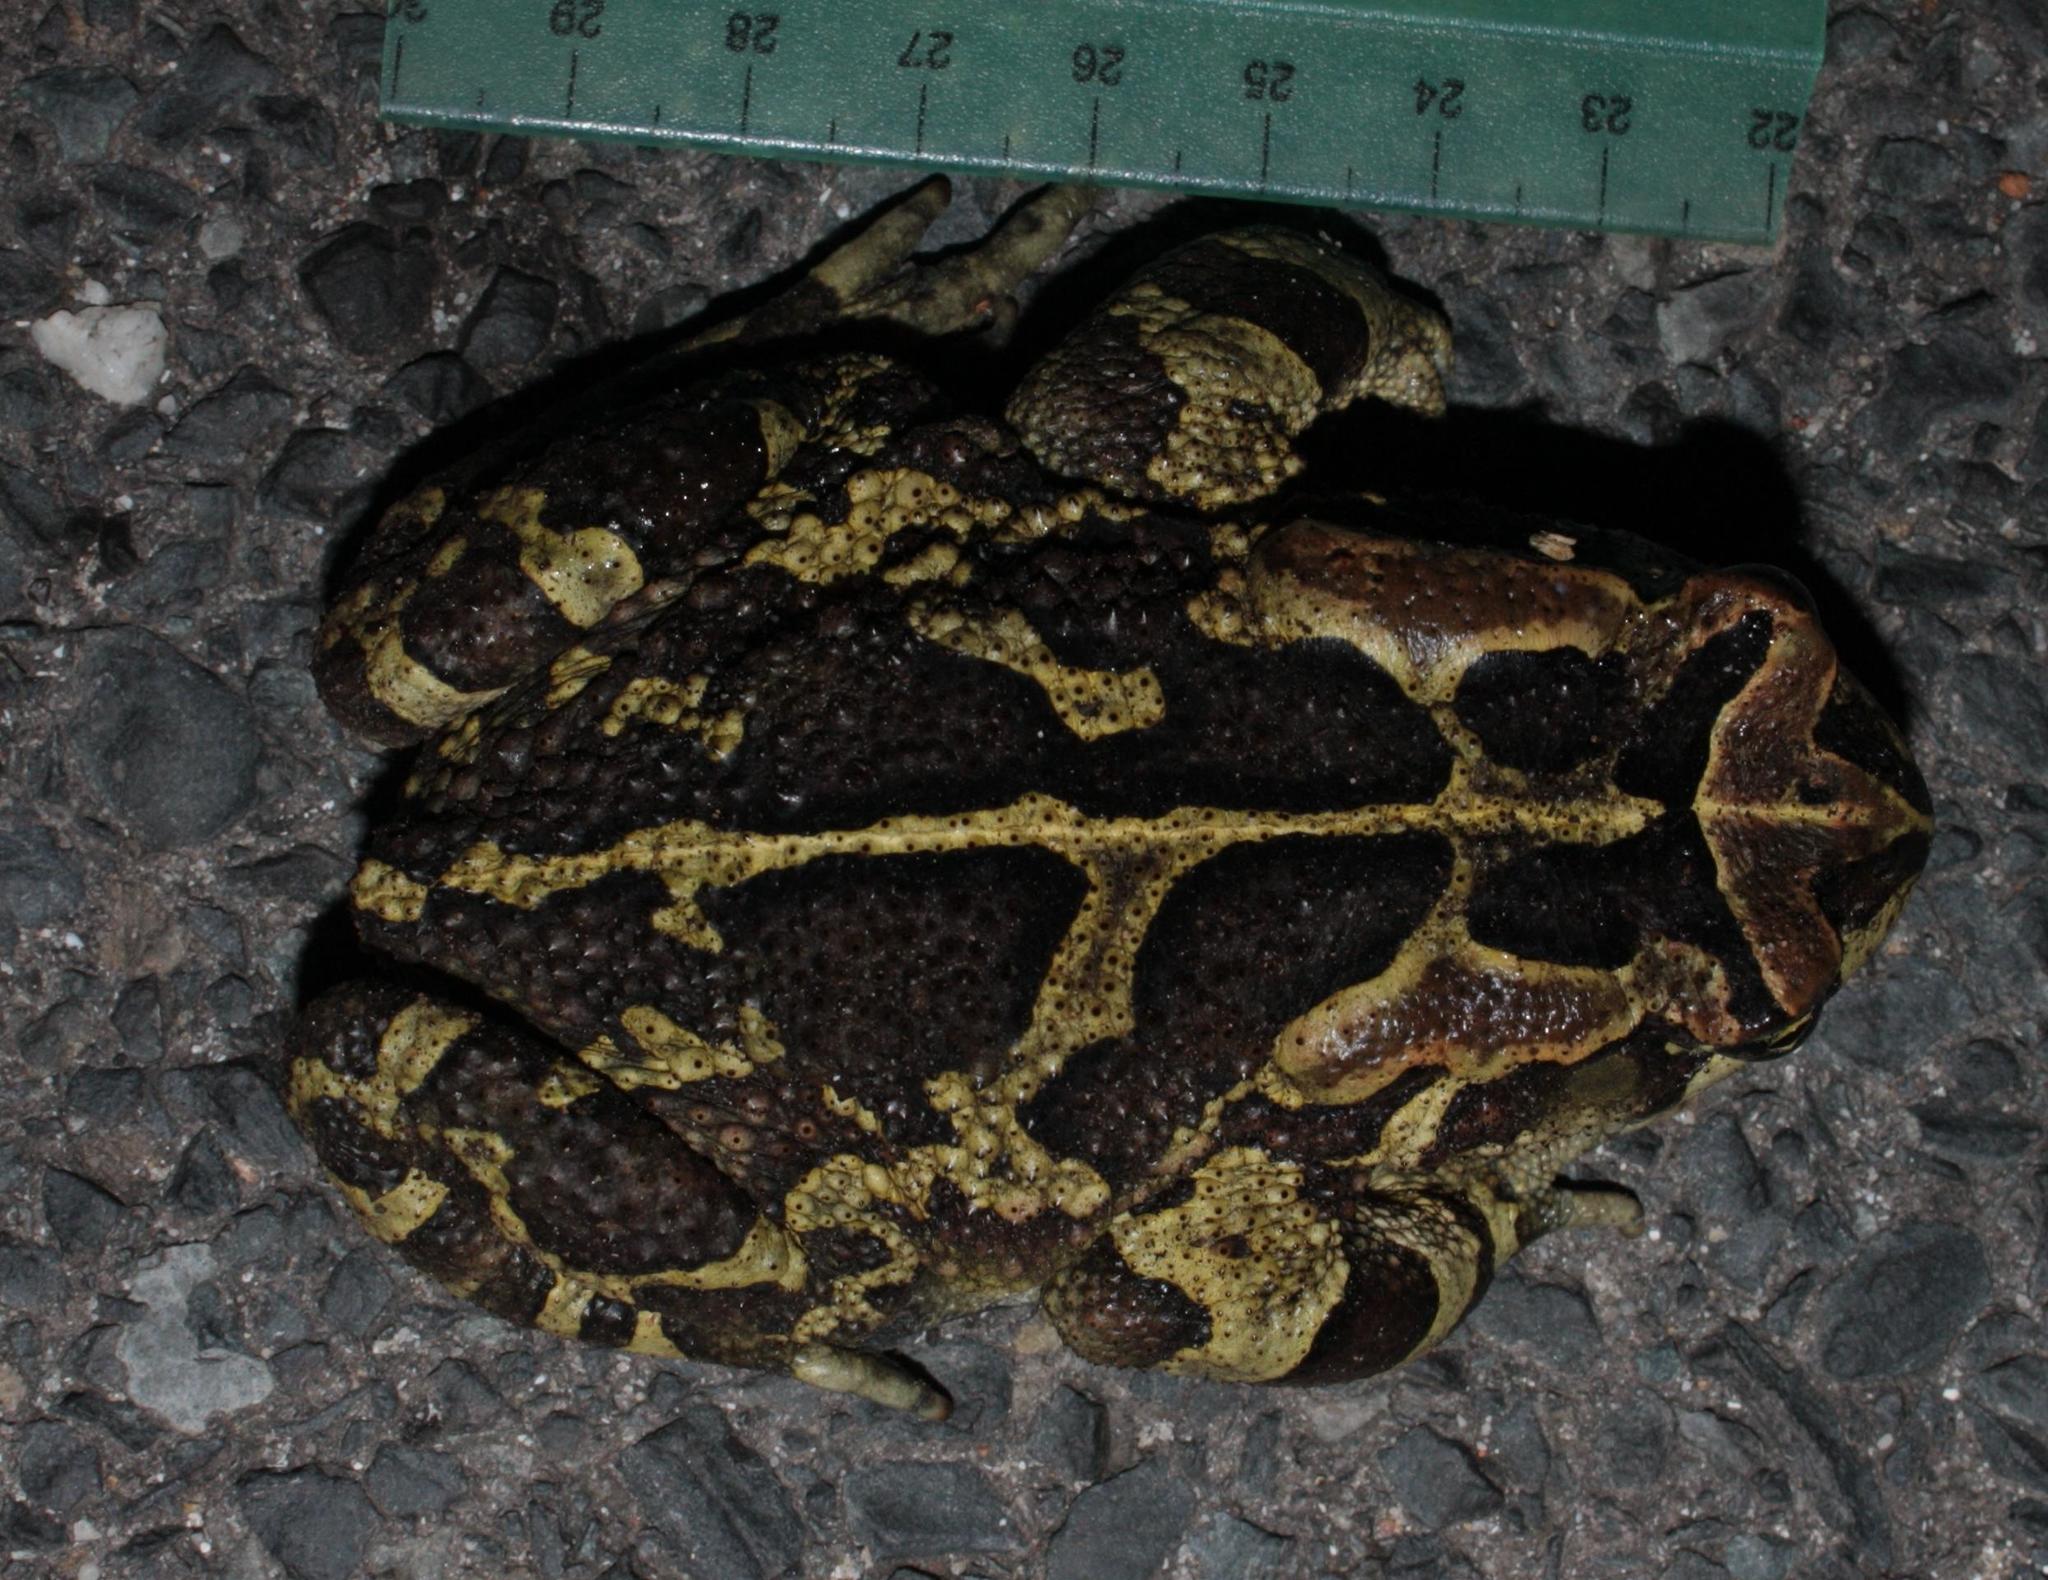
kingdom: Animalia
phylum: Chordata
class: Amphibia
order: Anura
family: Bufonidae
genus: Sclerophrys
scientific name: Sclerophrys pantherina
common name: Panther toad
